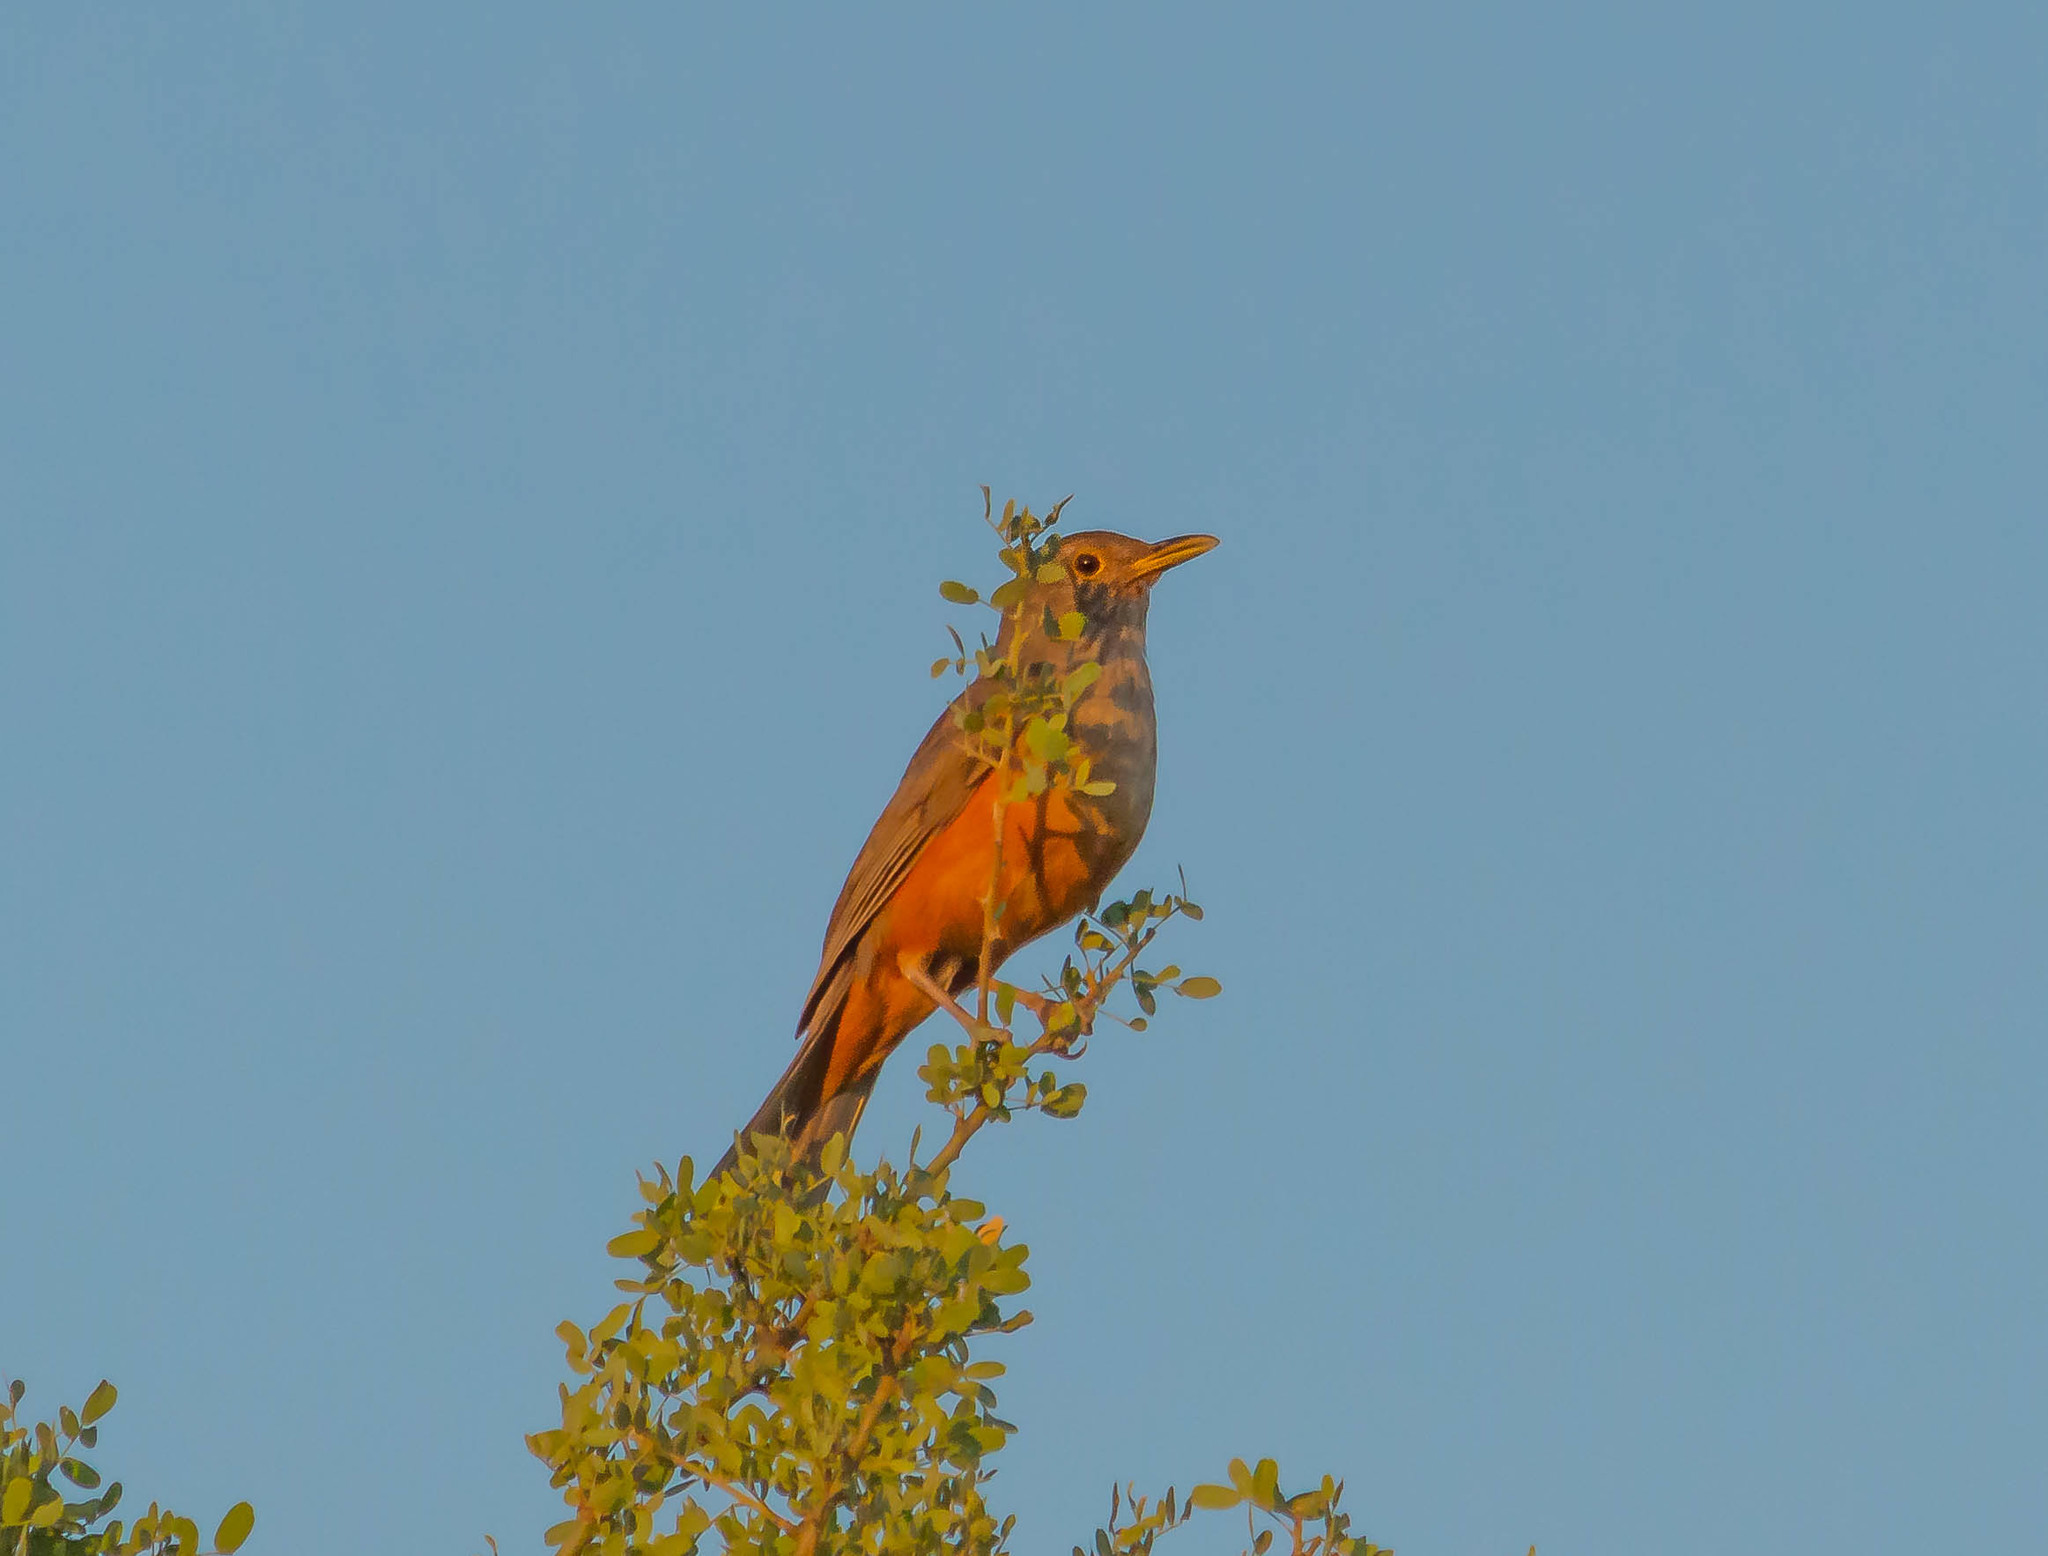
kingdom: Animalia
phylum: Chordata
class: Aves
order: Passeriformes
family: Turdidae
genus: Turdus
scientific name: Turdus rufiventris
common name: Rufous-bellied thrush
